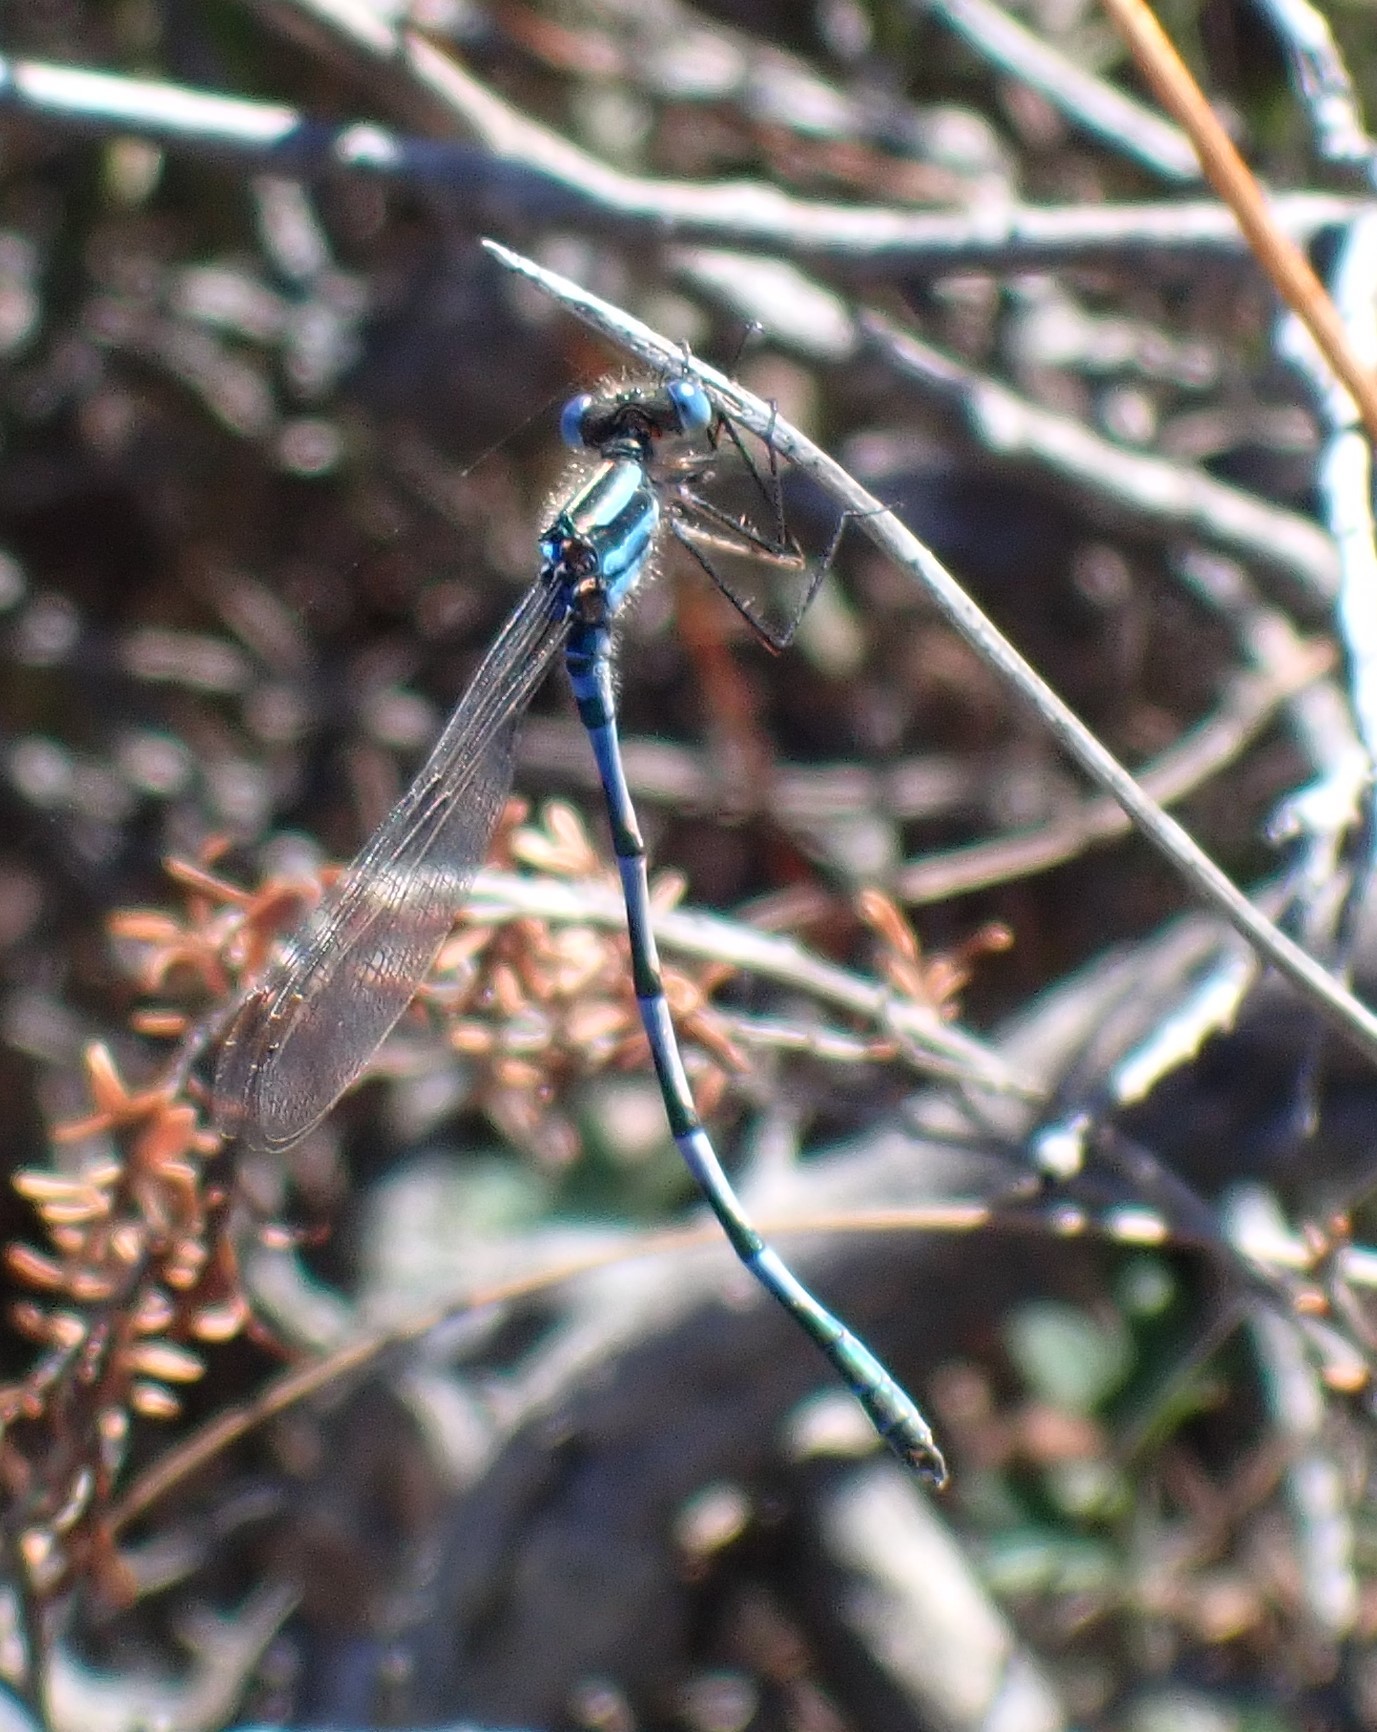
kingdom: Animalia
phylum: Arthropoda
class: Insecta
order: Odonata
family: Lestidae
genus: Austrolestes
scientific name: Austrolestes annulosus
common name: Blue ringtail
